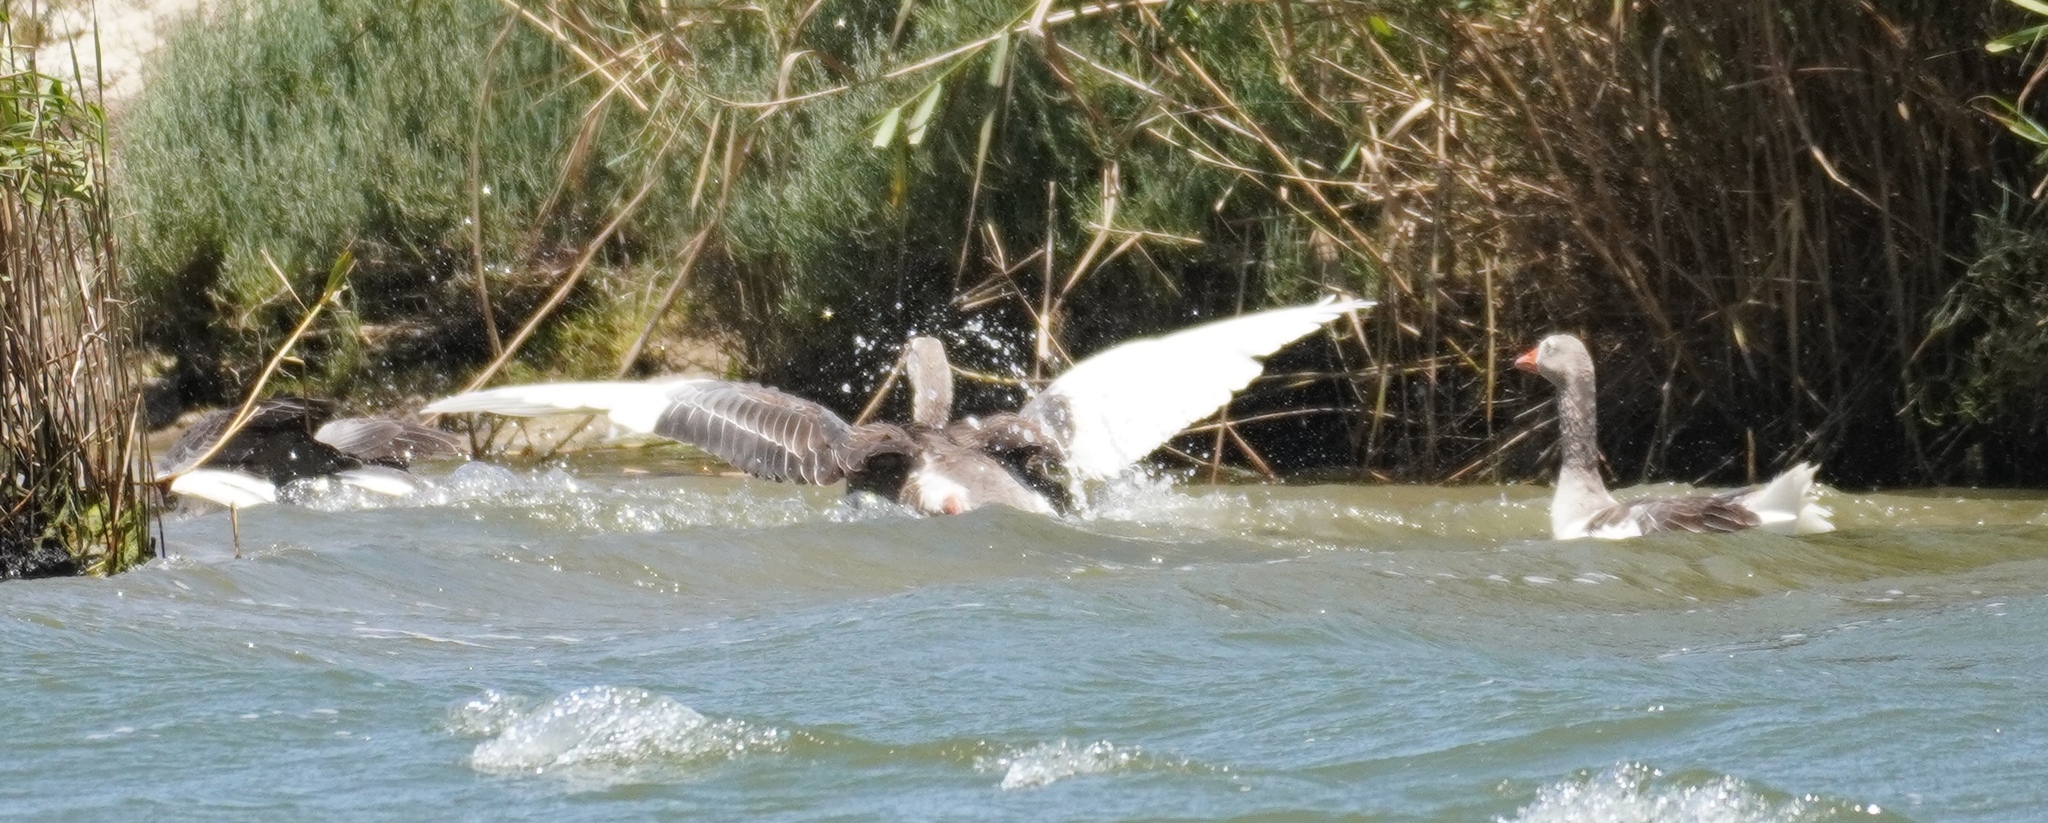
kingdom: Animalia
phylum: Chordata
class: Aves
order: Anseriformes
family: Anatidae
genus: Anser
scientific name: Anser anser
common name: Greylag goose
